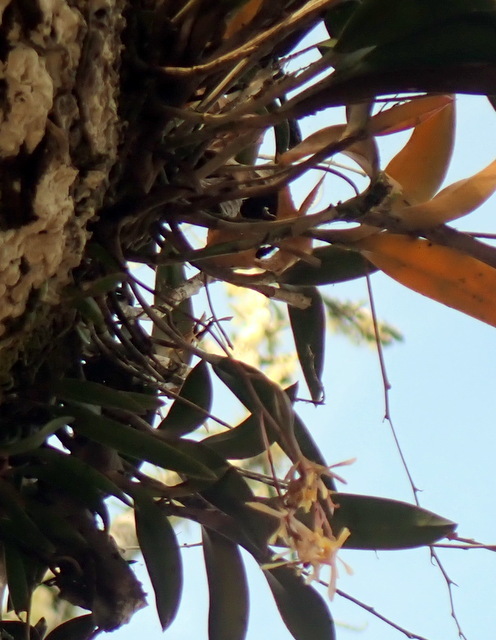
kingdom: Plantae
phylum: Tracheophyta
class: Liliopsida
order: Asparagales
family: Orchidaceae
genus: Epidendrum
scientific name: Epidendrum conopseum
